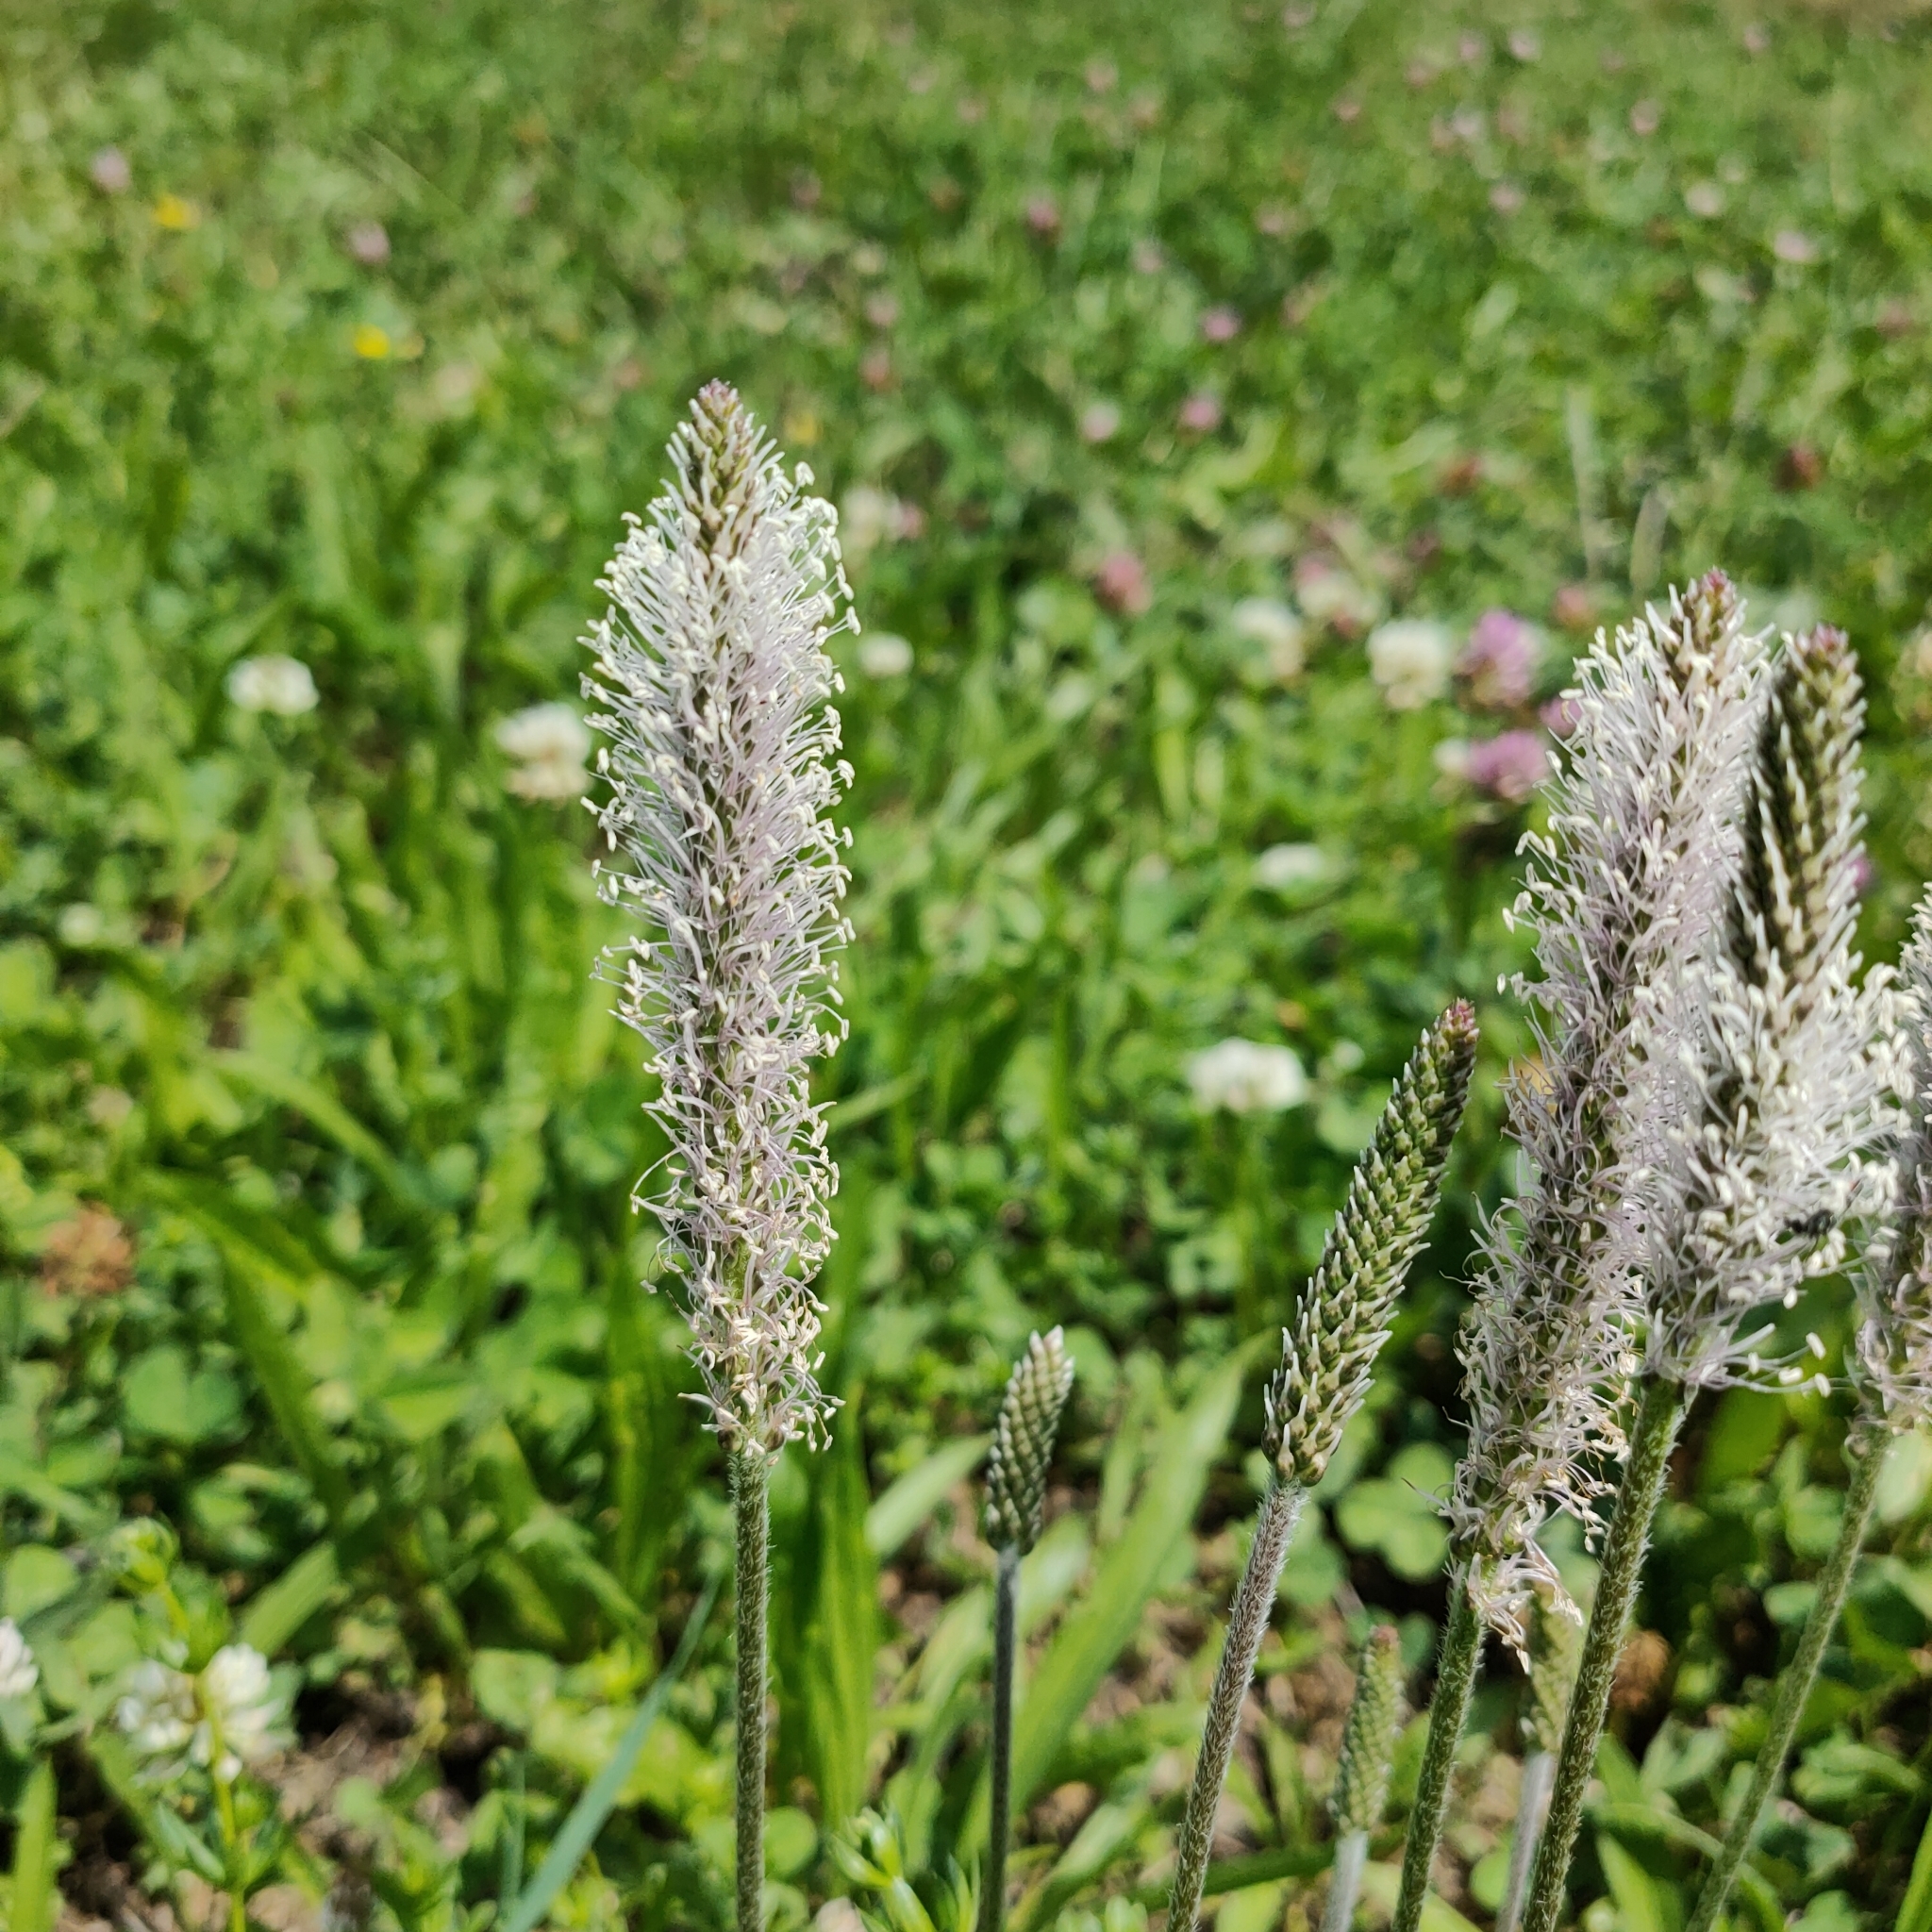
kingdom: Plantae
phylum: Tracheophyta
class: Magnoliopsida
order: Lamiales
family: Plantaginaceae
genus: Plantago
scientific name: Plantago media
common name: Hoary plantain
